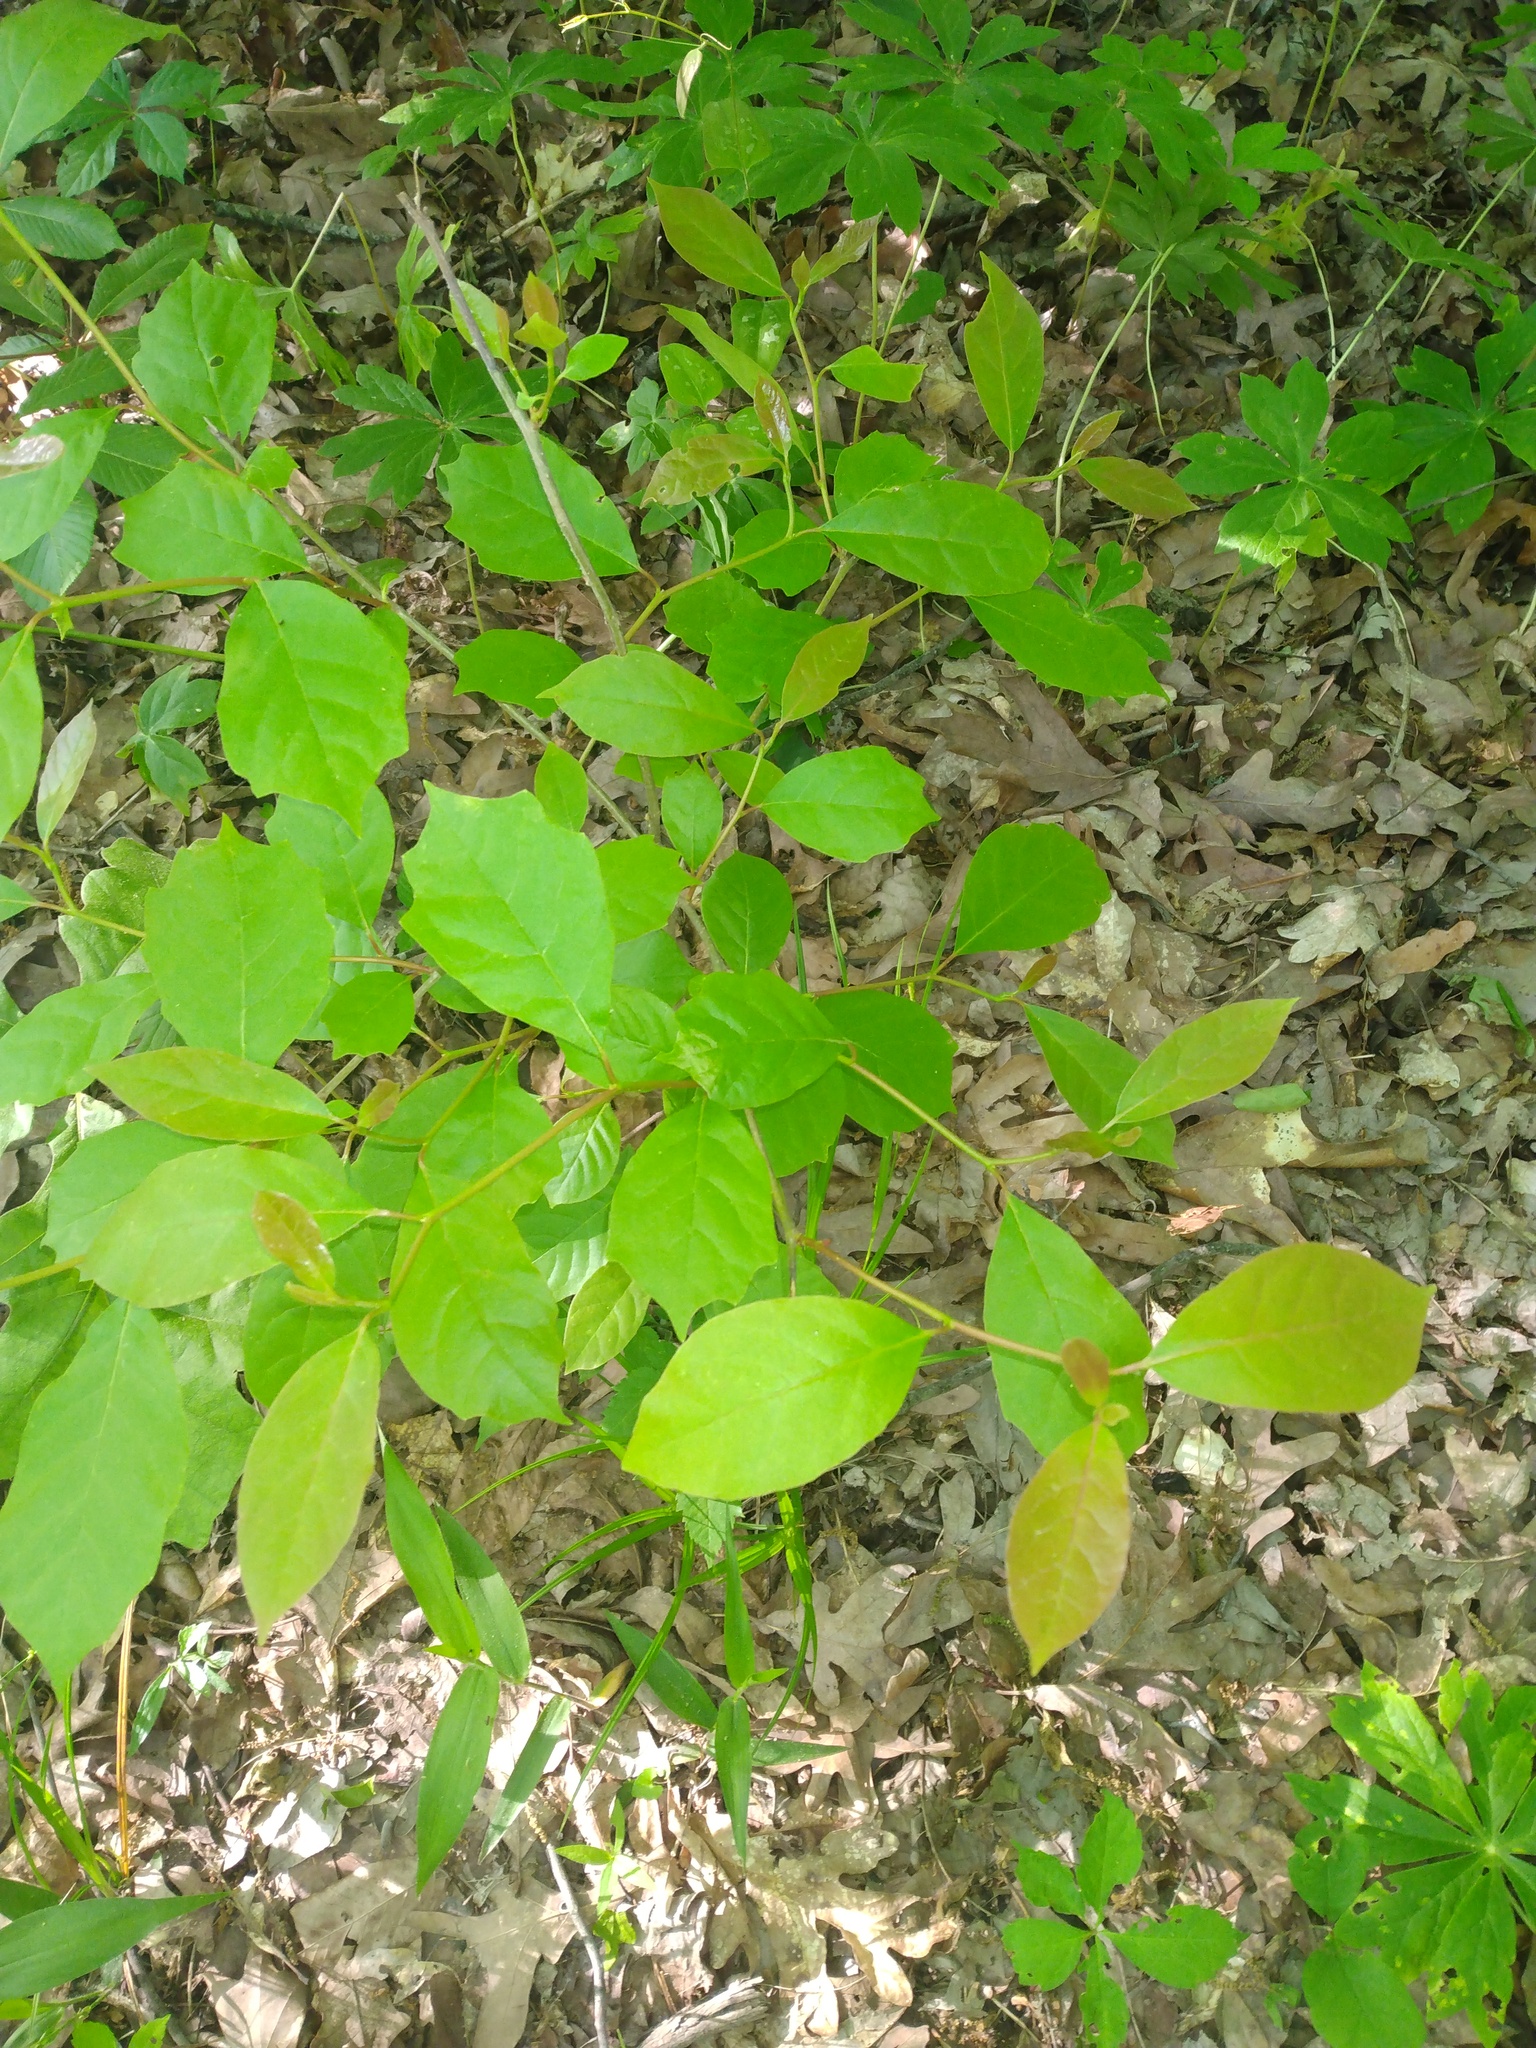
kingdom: Plantae
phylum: Tracheophyta
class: Magnoliopsida
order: Cornales
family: Nyssaceae
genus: Nyssa
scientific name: Nyssa sylvatica
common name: Black tupelo
